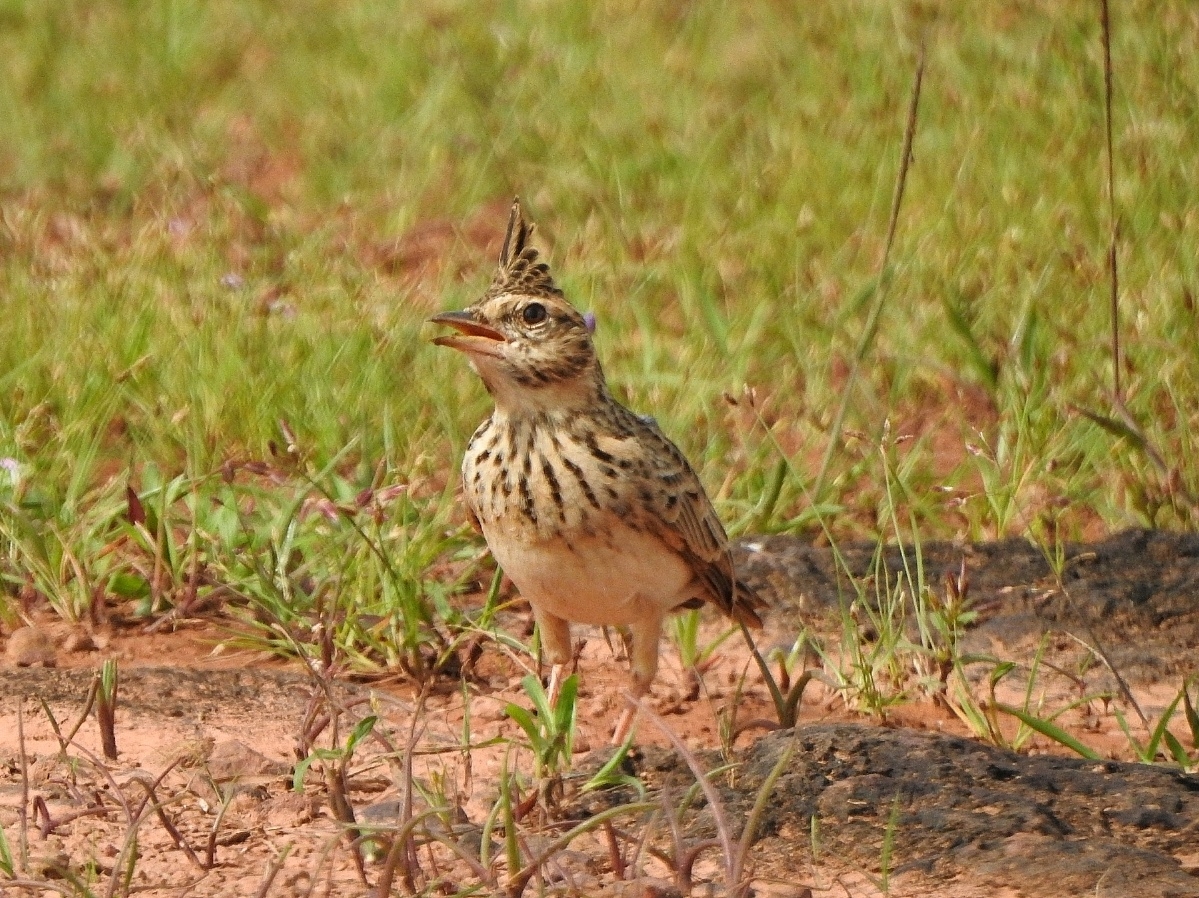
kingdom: Animalia
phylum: Chordata
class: Aves
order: Passeriformes
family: Alaudidae
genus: Galerida
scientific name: Galerida malabarica
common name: Malabar lark
